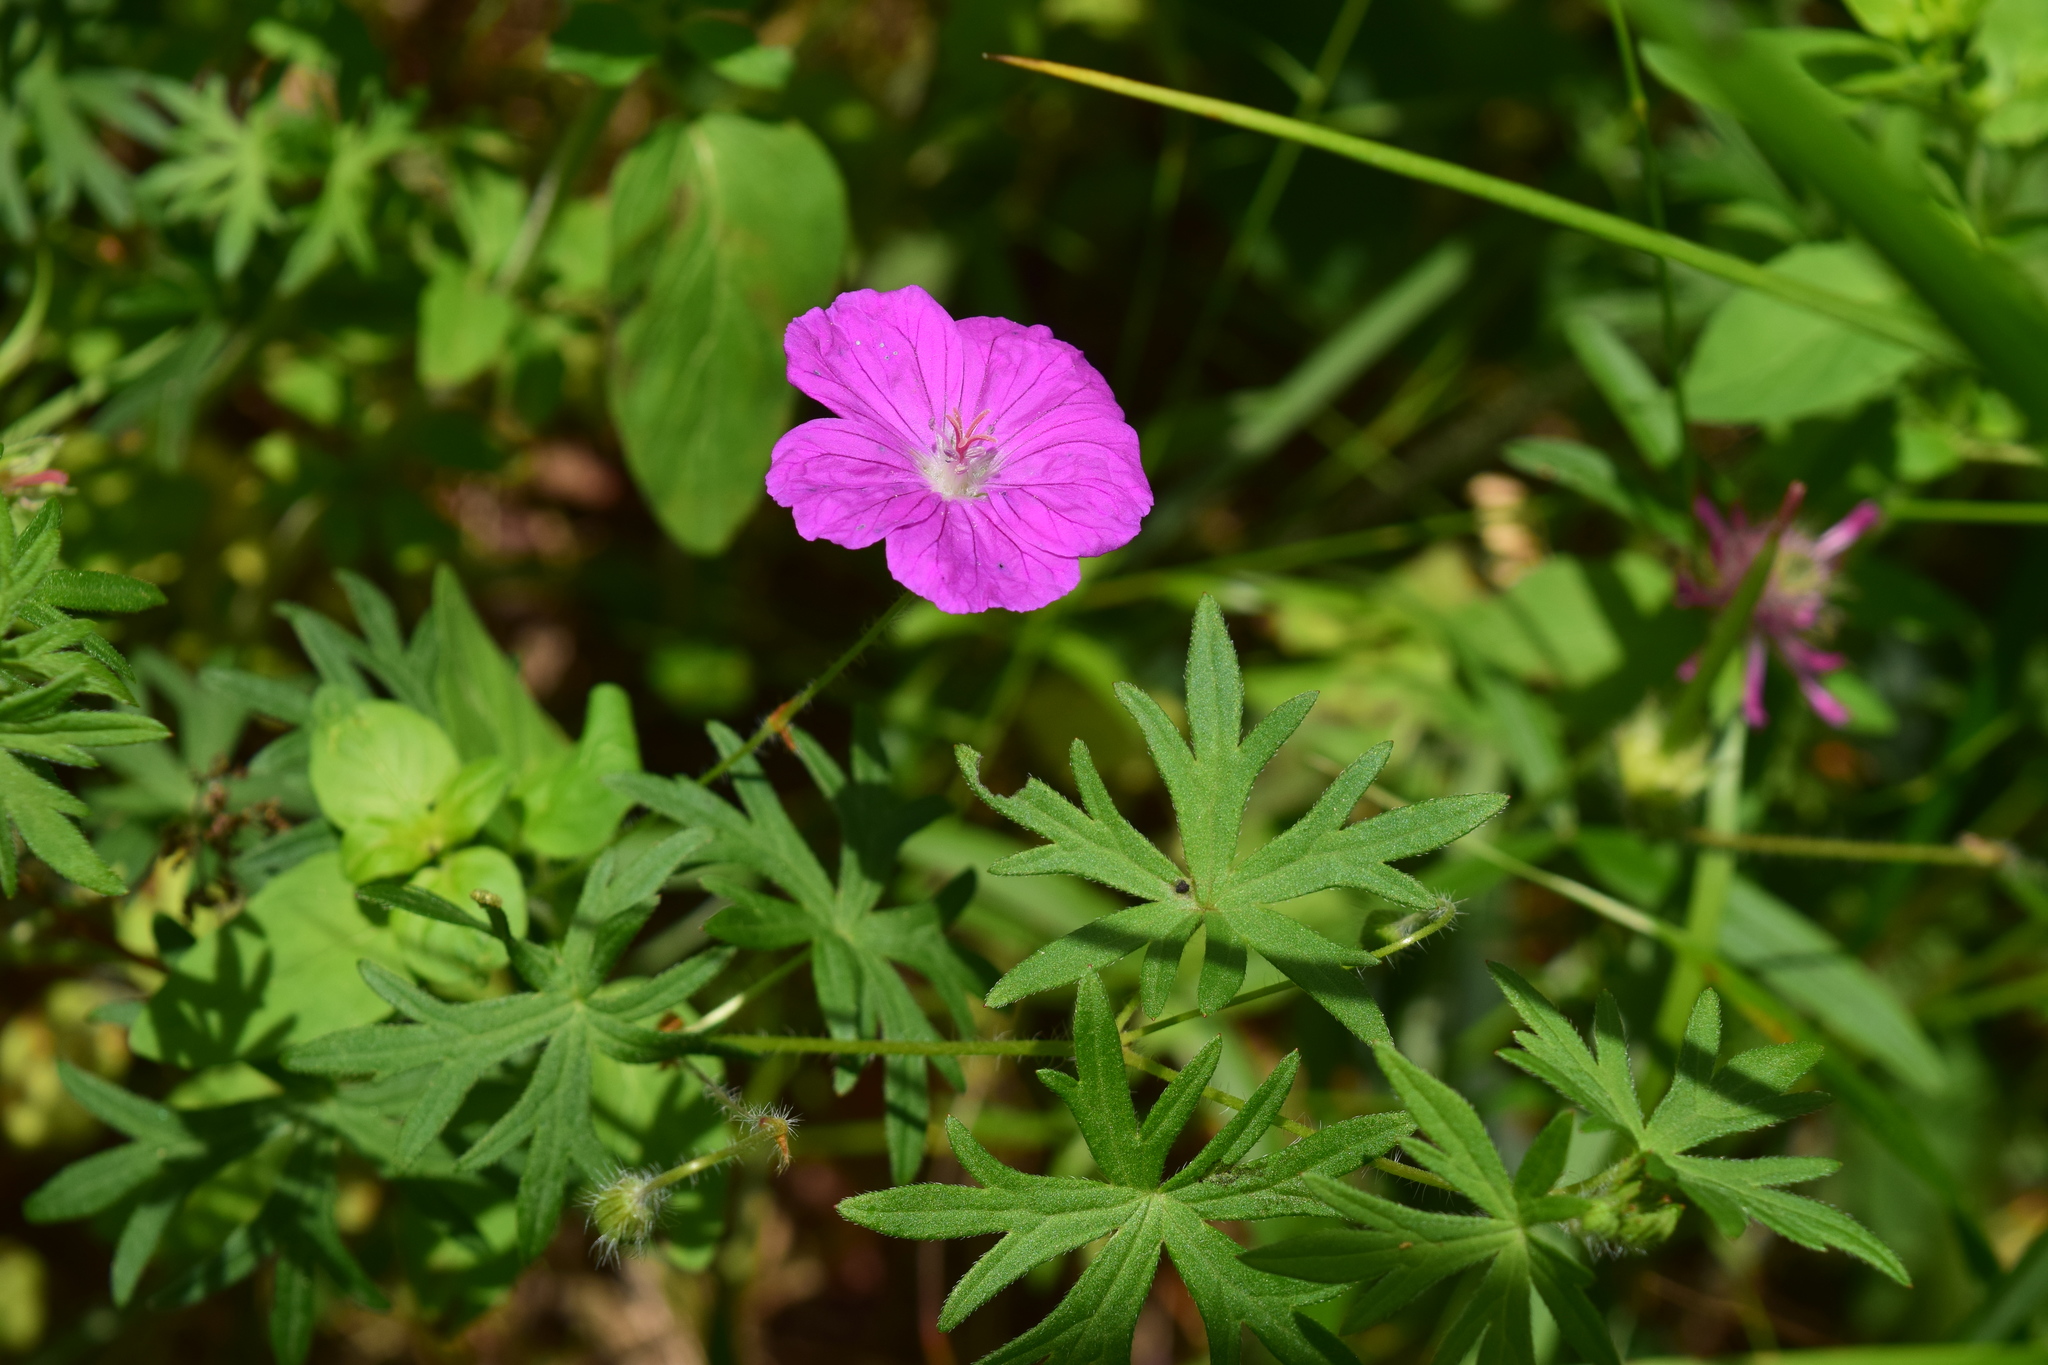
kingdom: Plantae
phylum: Tracheophyta
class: Magnoliopsida
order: Geraniales
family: Geraniaceae
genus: Geranium
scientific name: Geranium sanguineum
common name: Bloody crane's-bill
